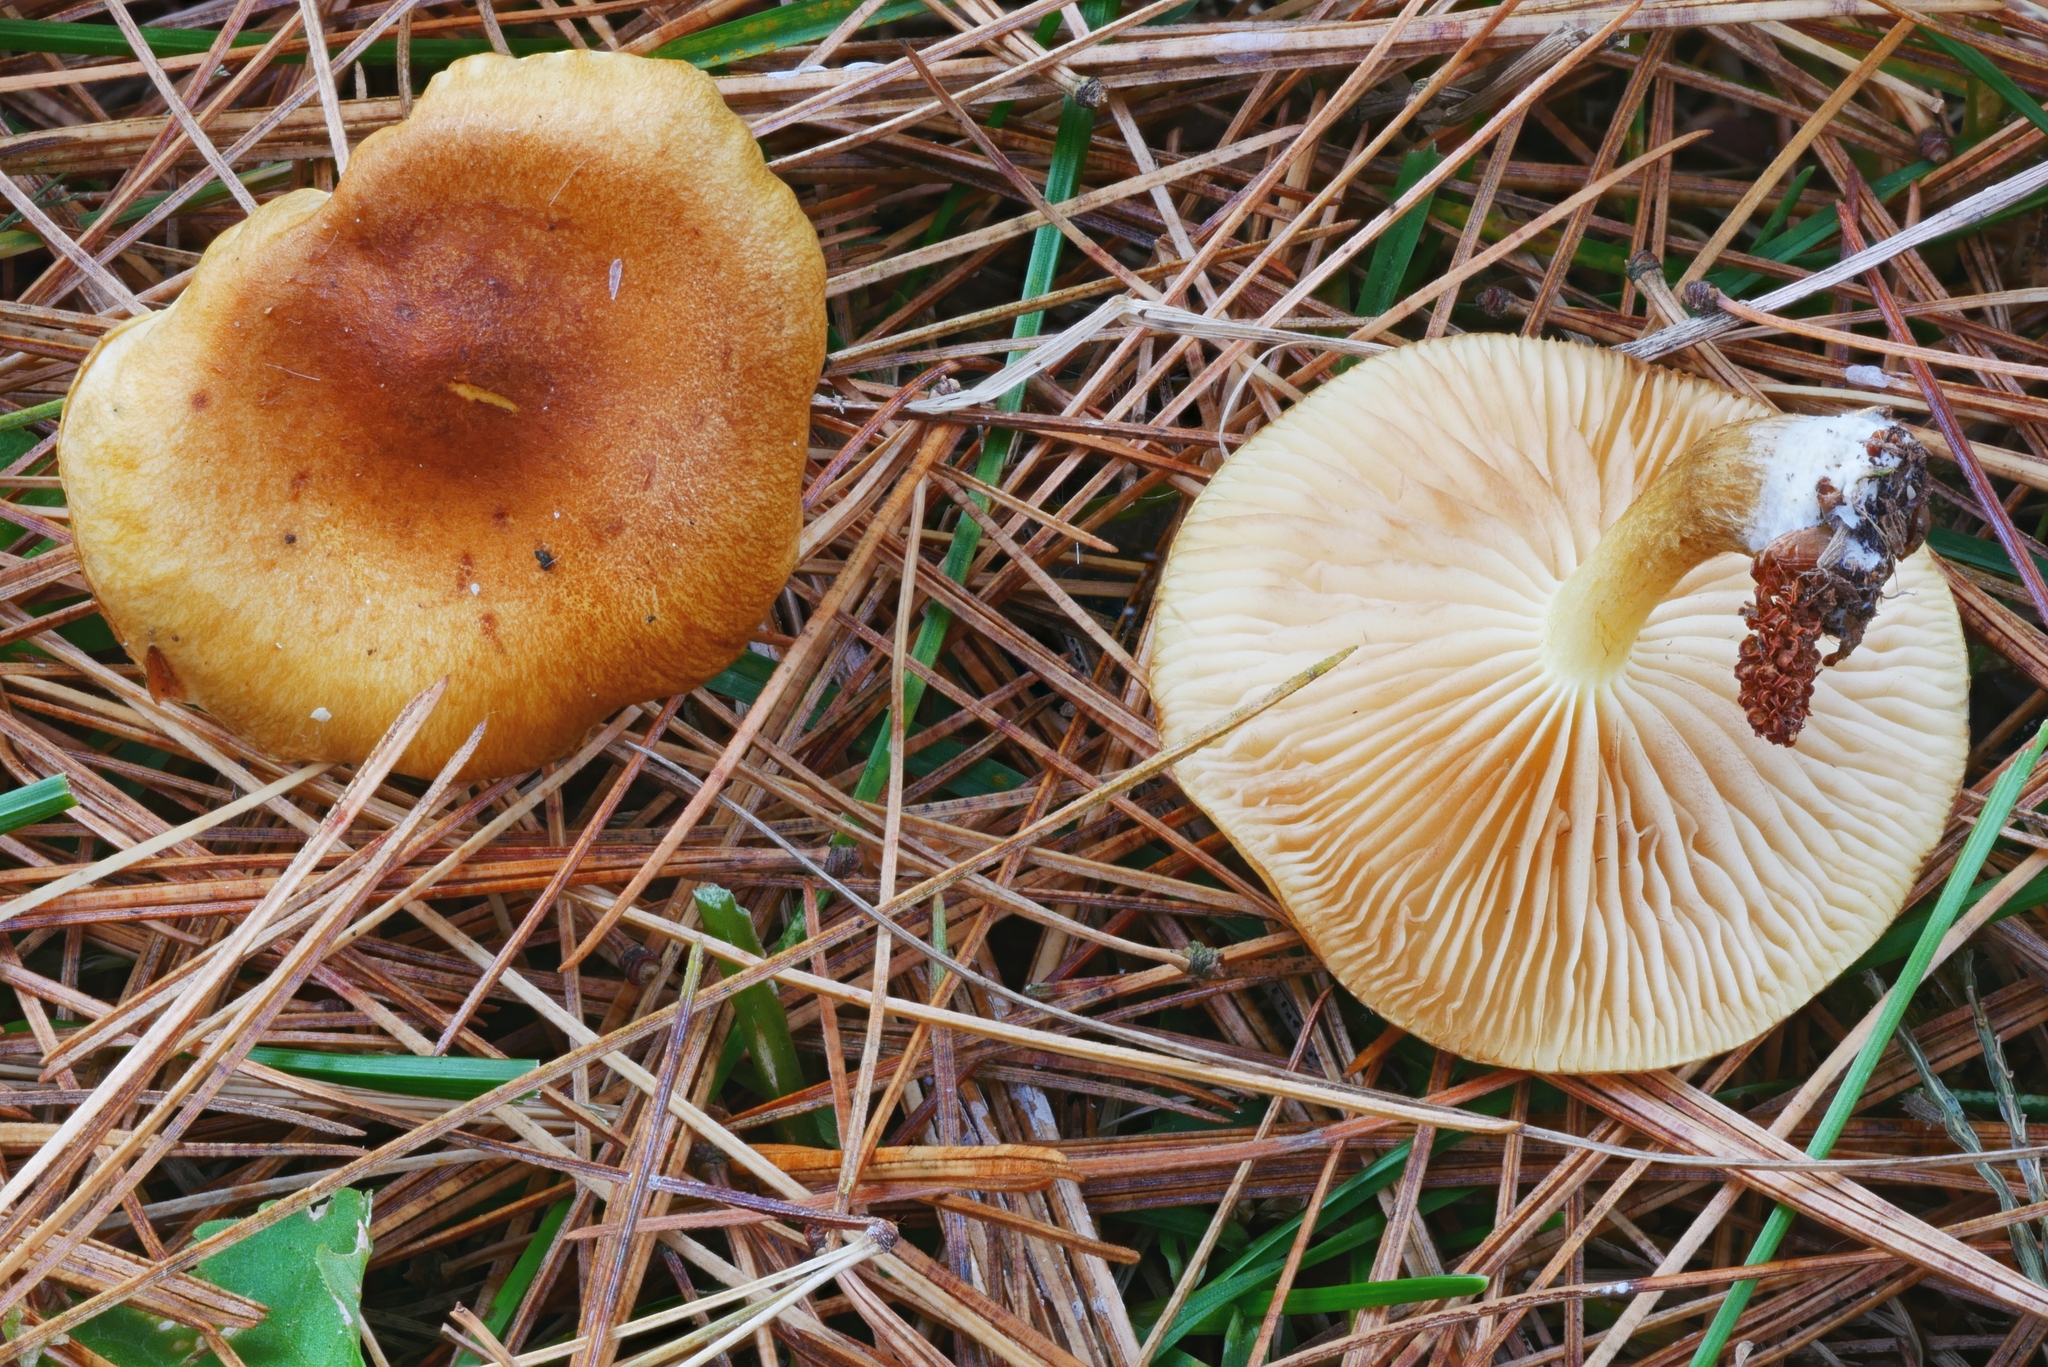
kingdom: Fungi
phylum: Basidiomycota
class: Agaricomycetes
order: Agaricales
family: Strophariaceae
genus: Pholiota
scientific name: Pholiota spumosa
